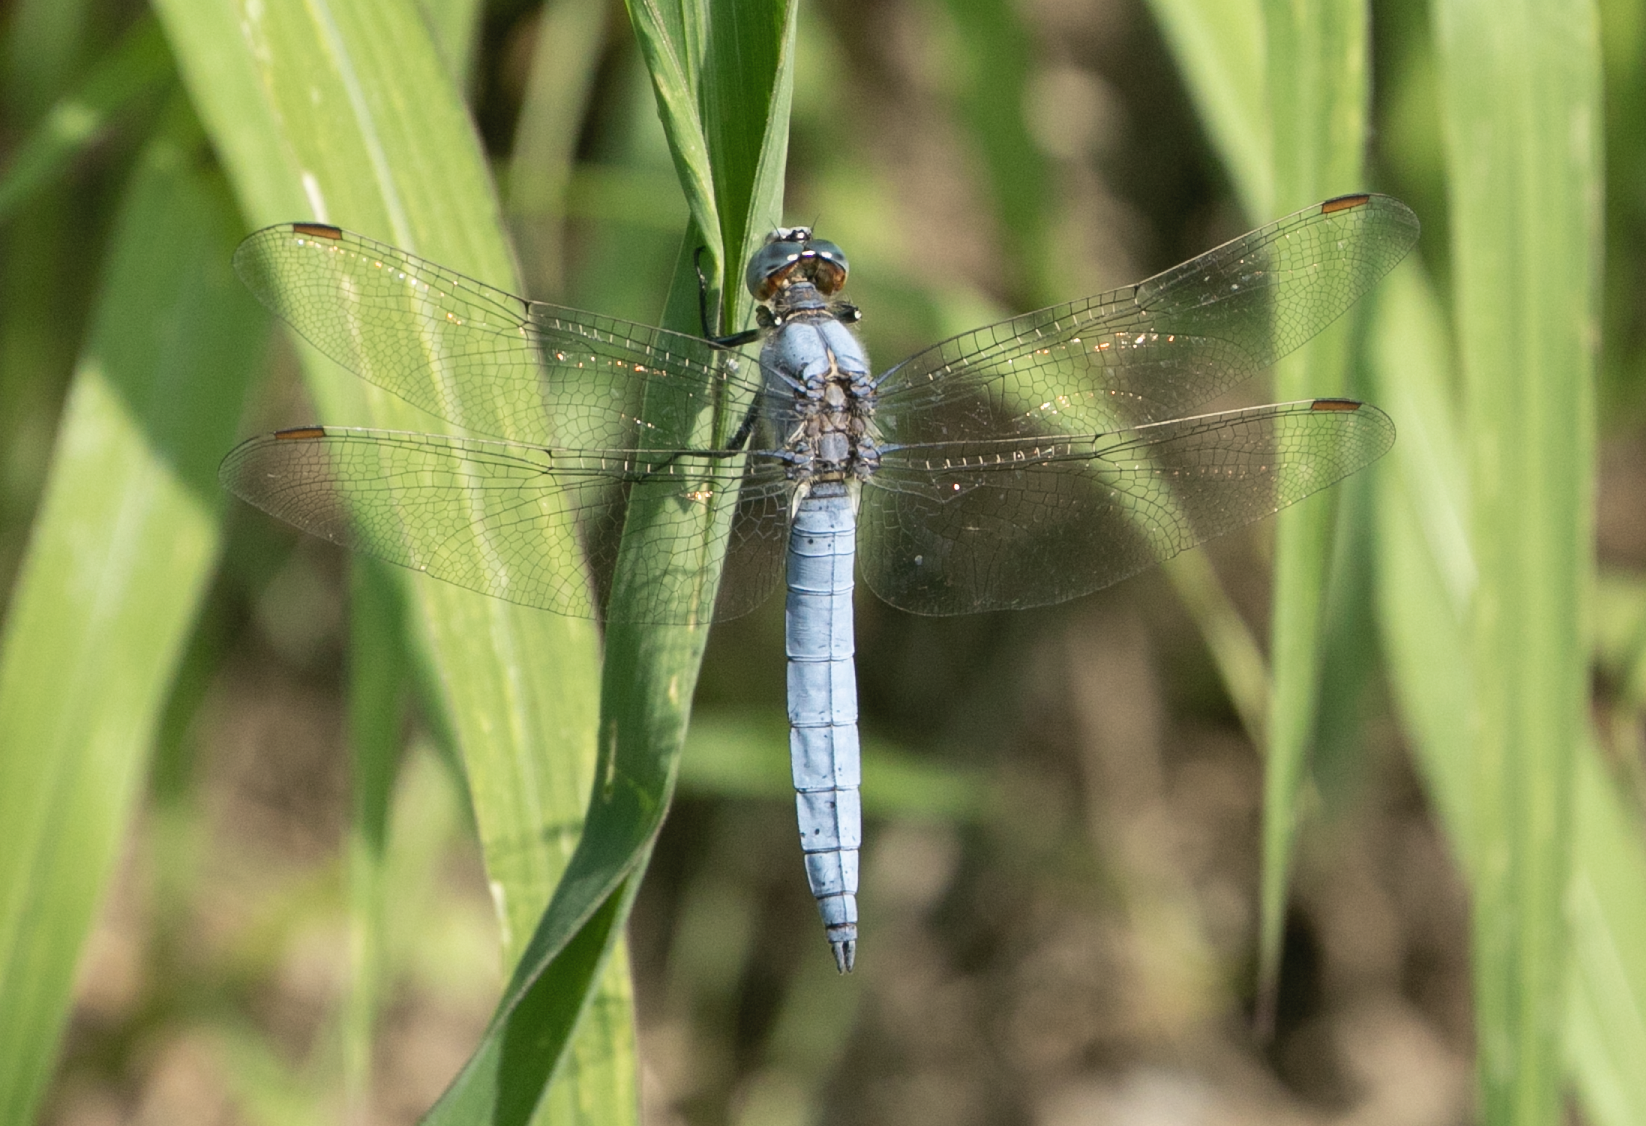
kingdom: Animalia
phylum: Arthropoda
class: Insecta
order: Odonata
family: Libellulidae
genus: Orthetrum
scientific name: Orthetrum brunneum
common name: Southern skimmer
